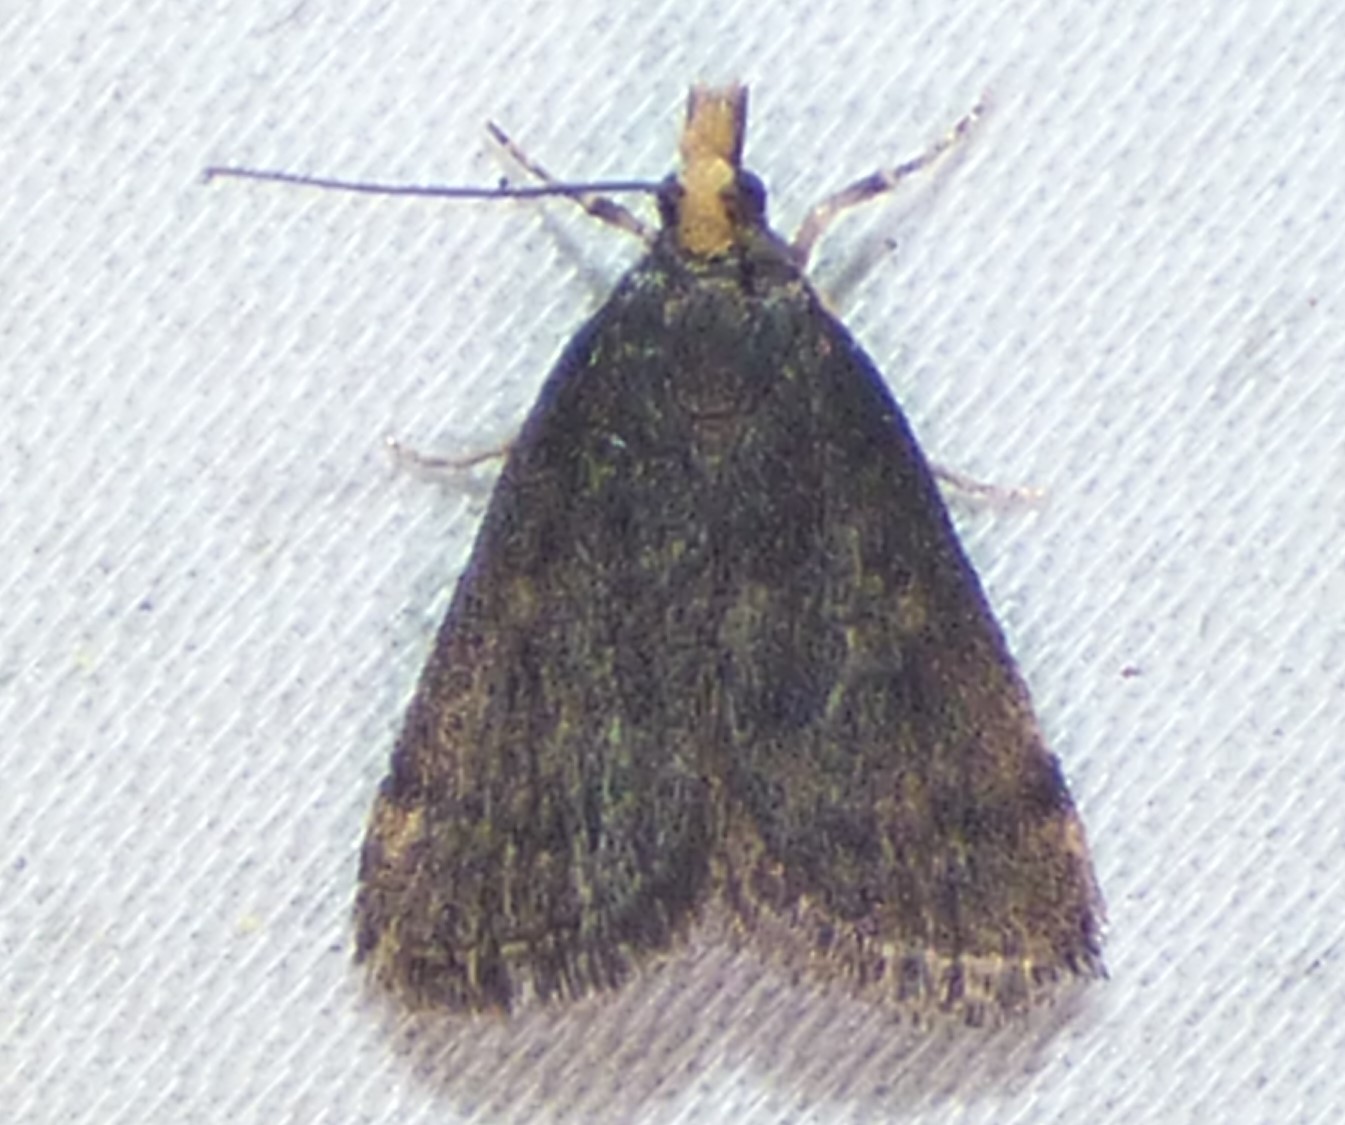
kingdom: Animalia
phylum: Arthropoda
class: Insecta
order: Lepidoptera
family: Crambidae
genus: Pyrausta
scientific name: Pyrausta merrickalis
